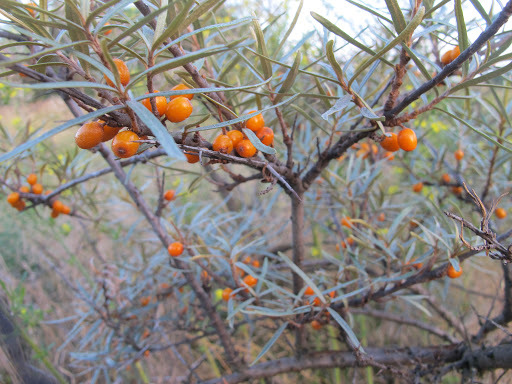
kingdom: Plantae
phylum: Tracheophyta
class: Magnoliopsida
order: Rosales
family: Elaeagnaceae
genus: Hippophae
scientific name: Hippophae rhamnoides
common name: Sea-buckthorn
